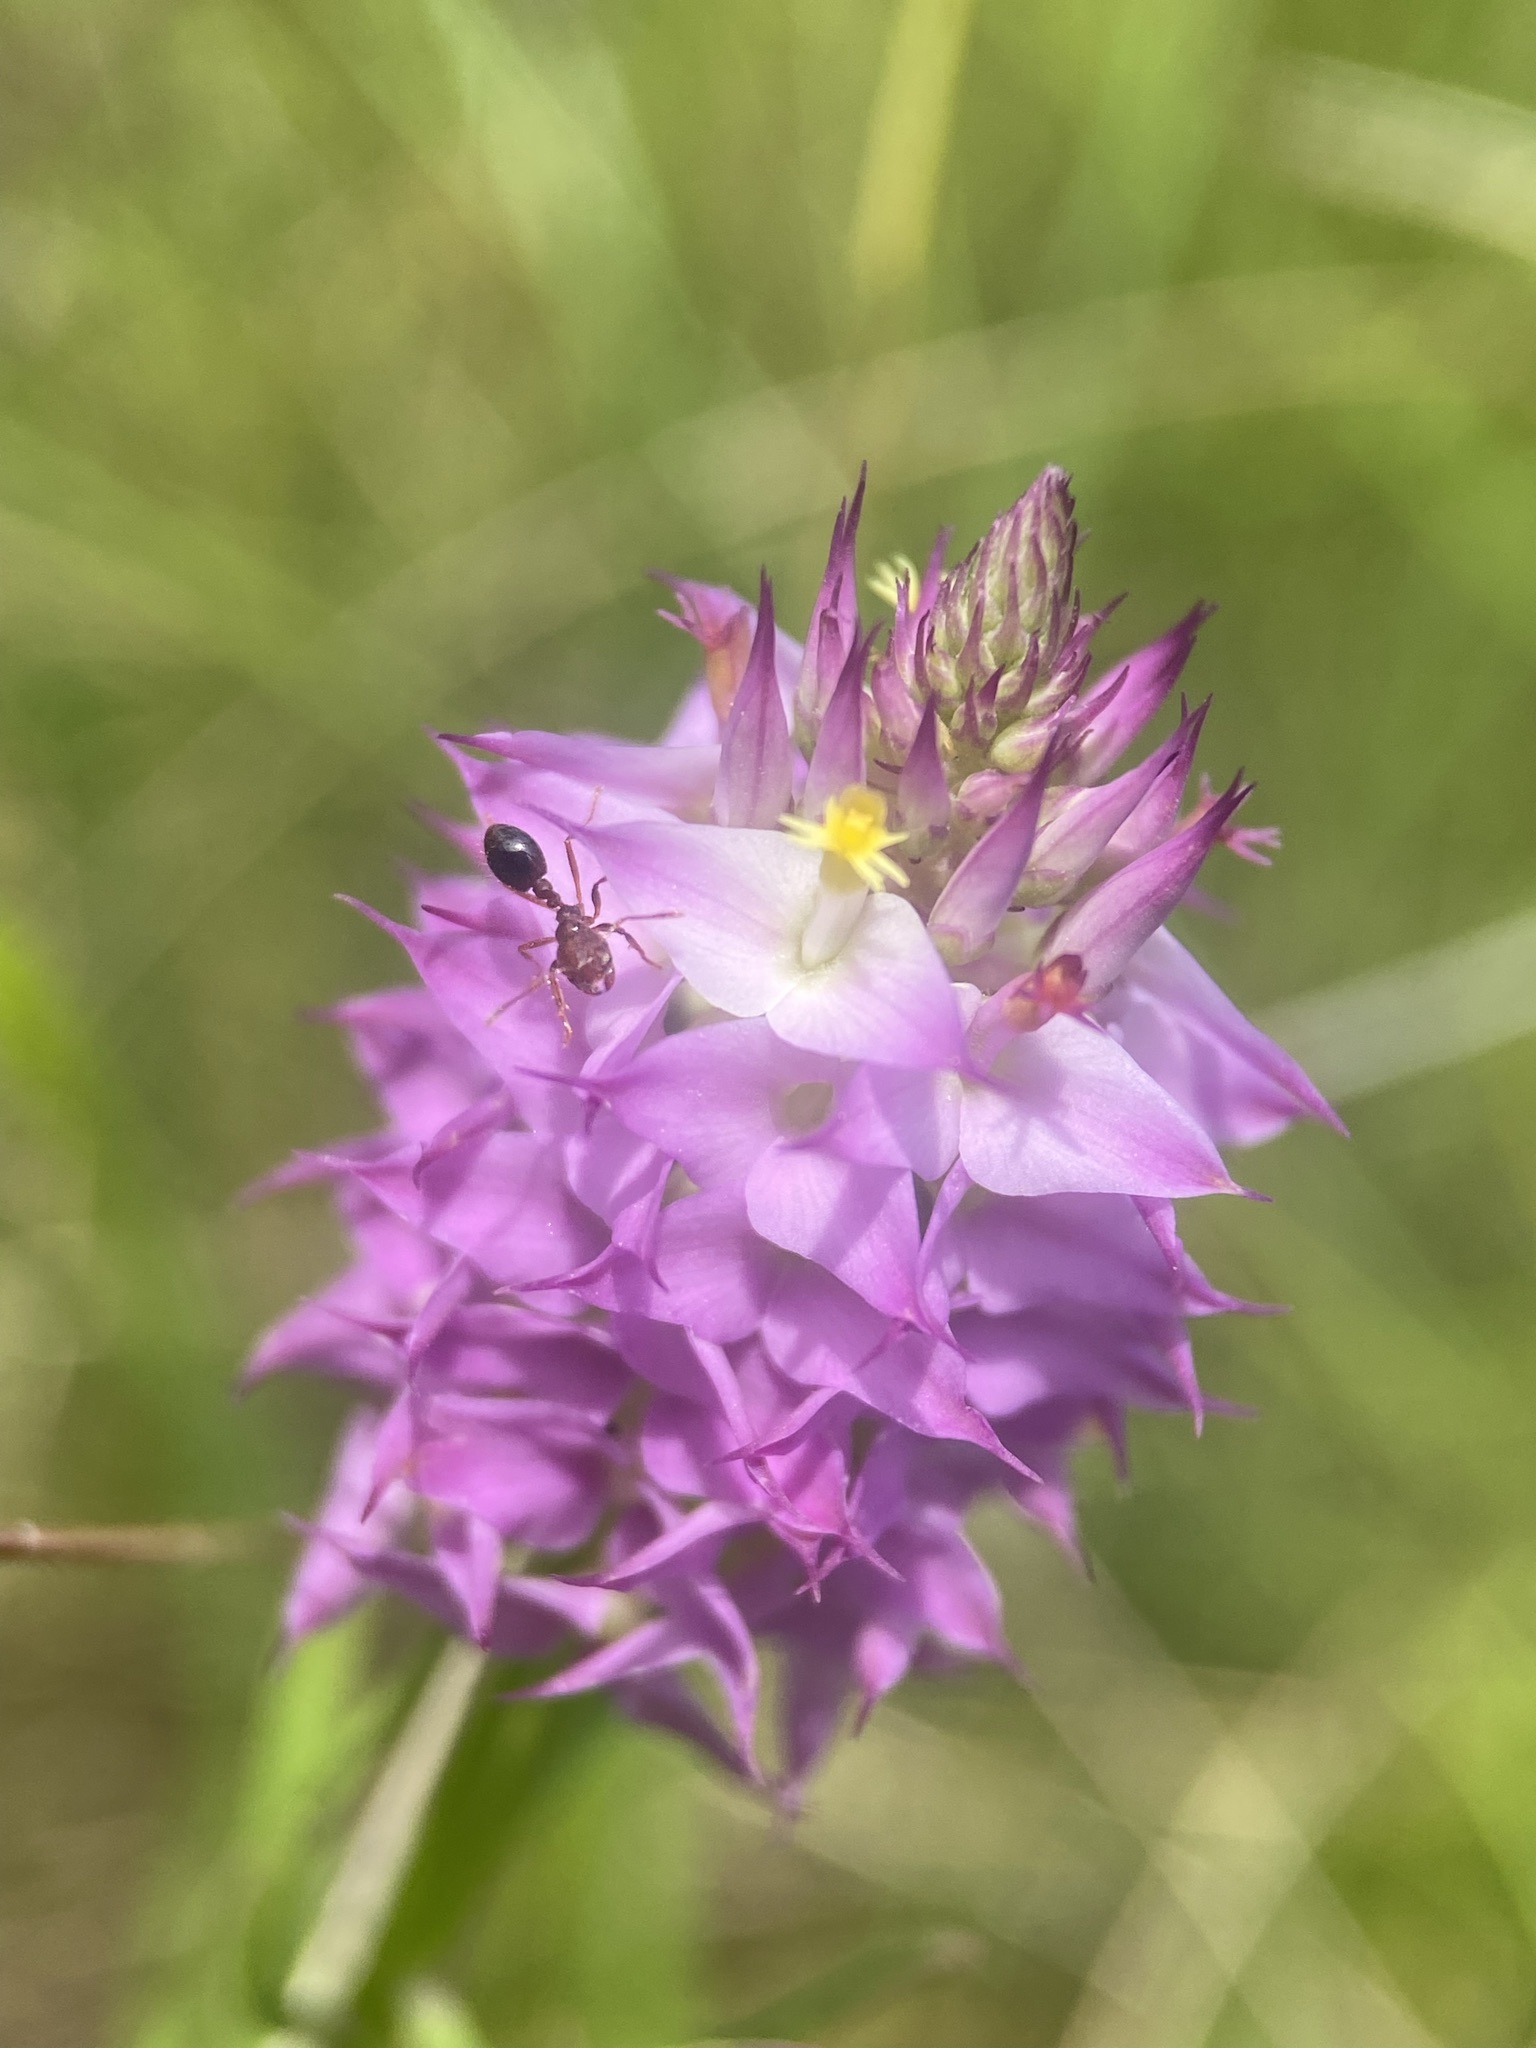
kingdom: Plantae
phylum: Tracheophyta
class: Magnoliopsida
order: Fabales
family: Polygalaceae
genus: Polygala
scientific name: Polygala cruciata
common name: Drumheads
